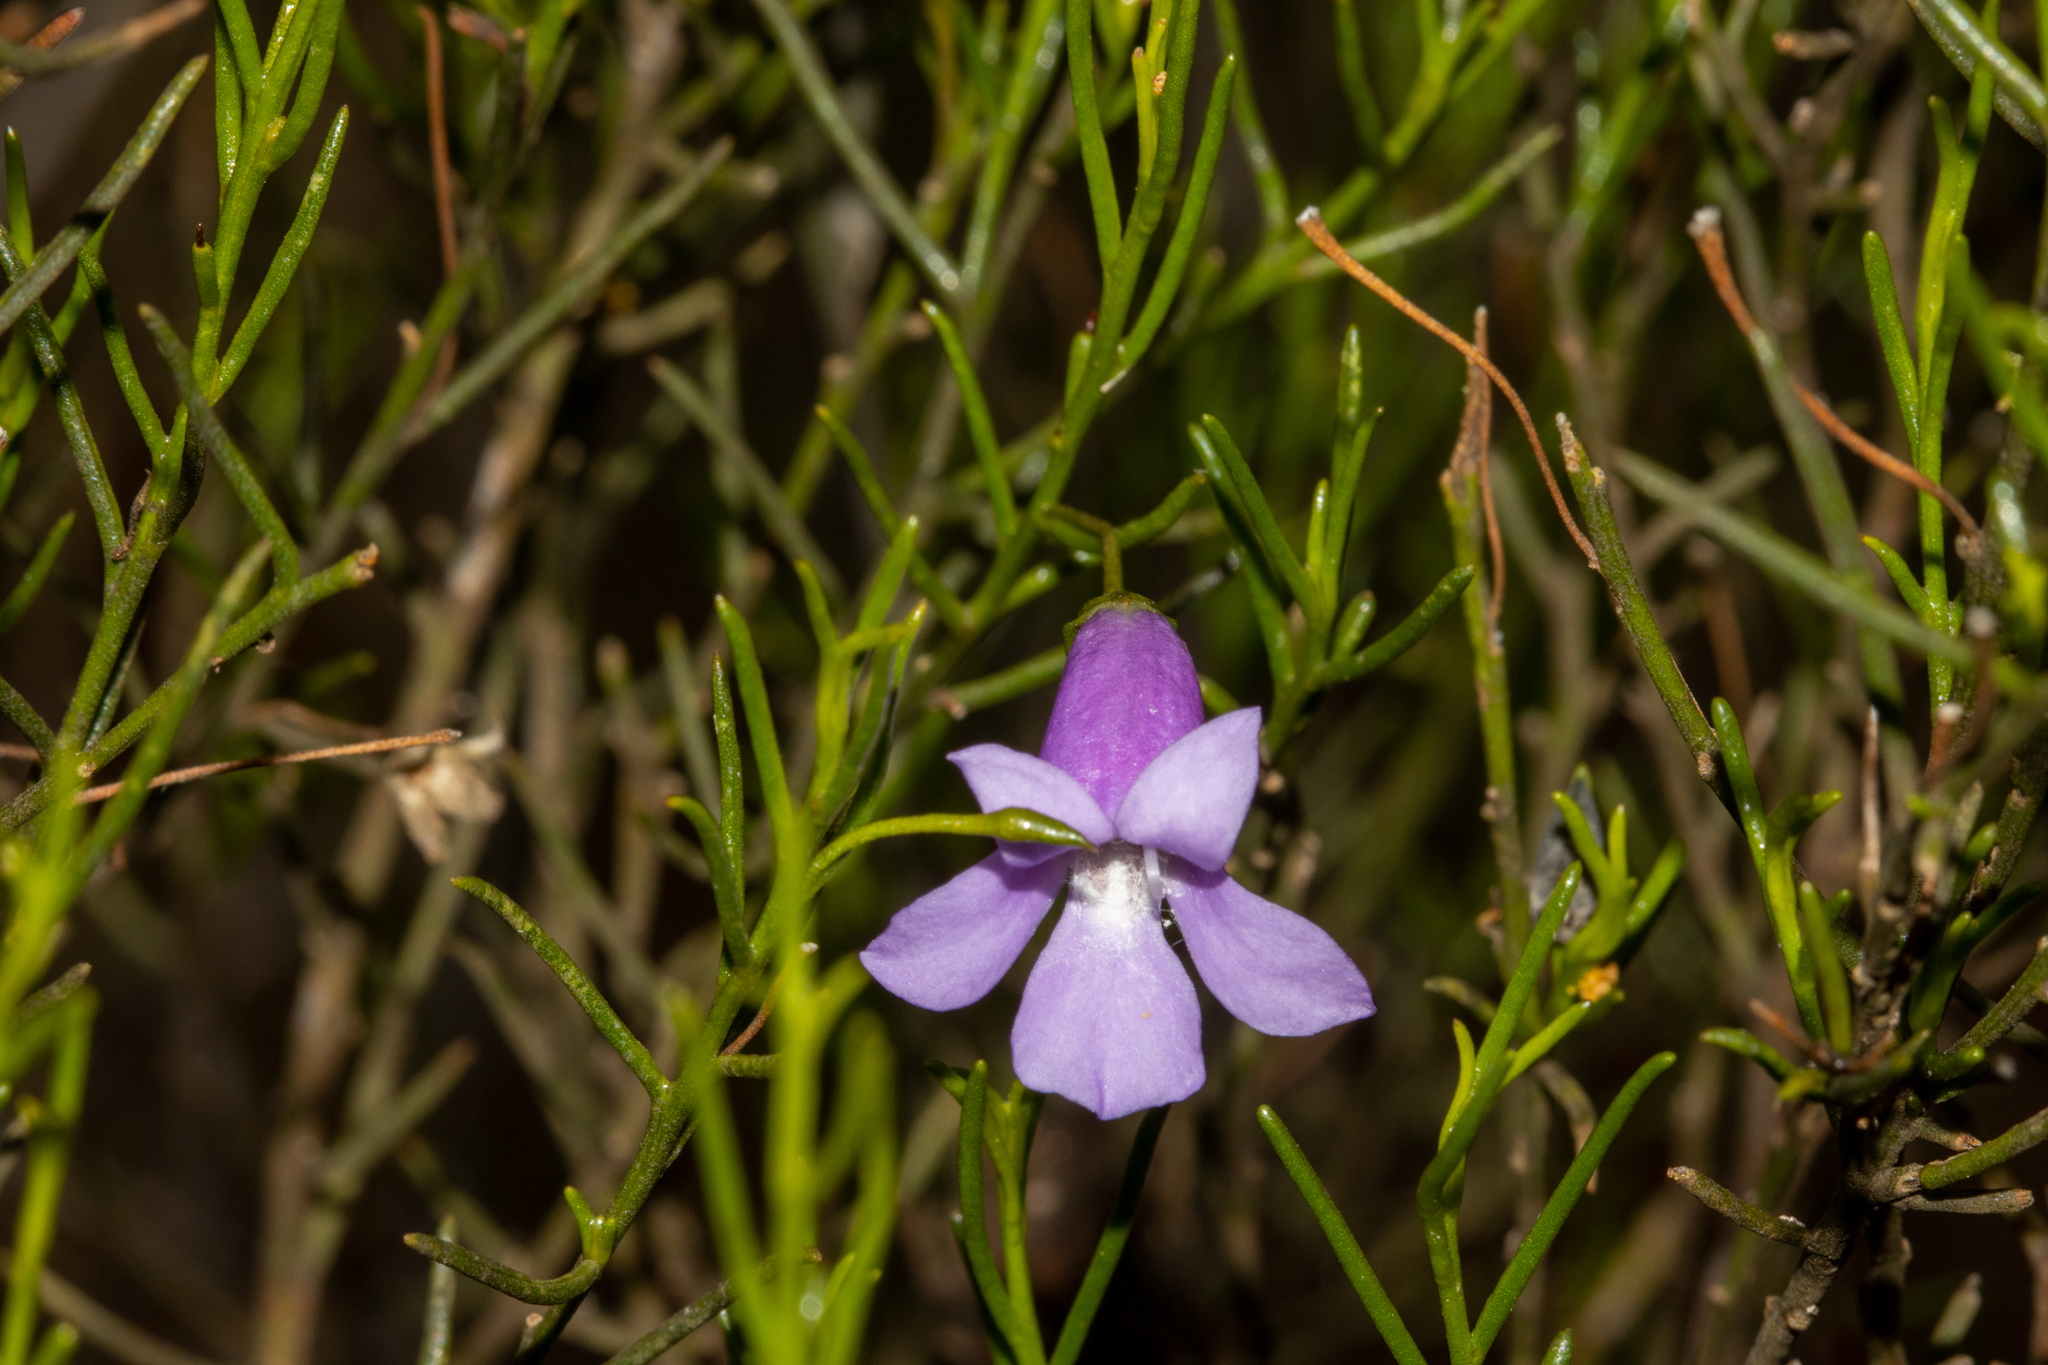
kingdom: Plantae
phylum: Tracheophyta
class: Magnoliopsida
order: Lamiales
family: Scrophulariaceae
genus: Eremophila
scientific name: Eremophila drummondii
